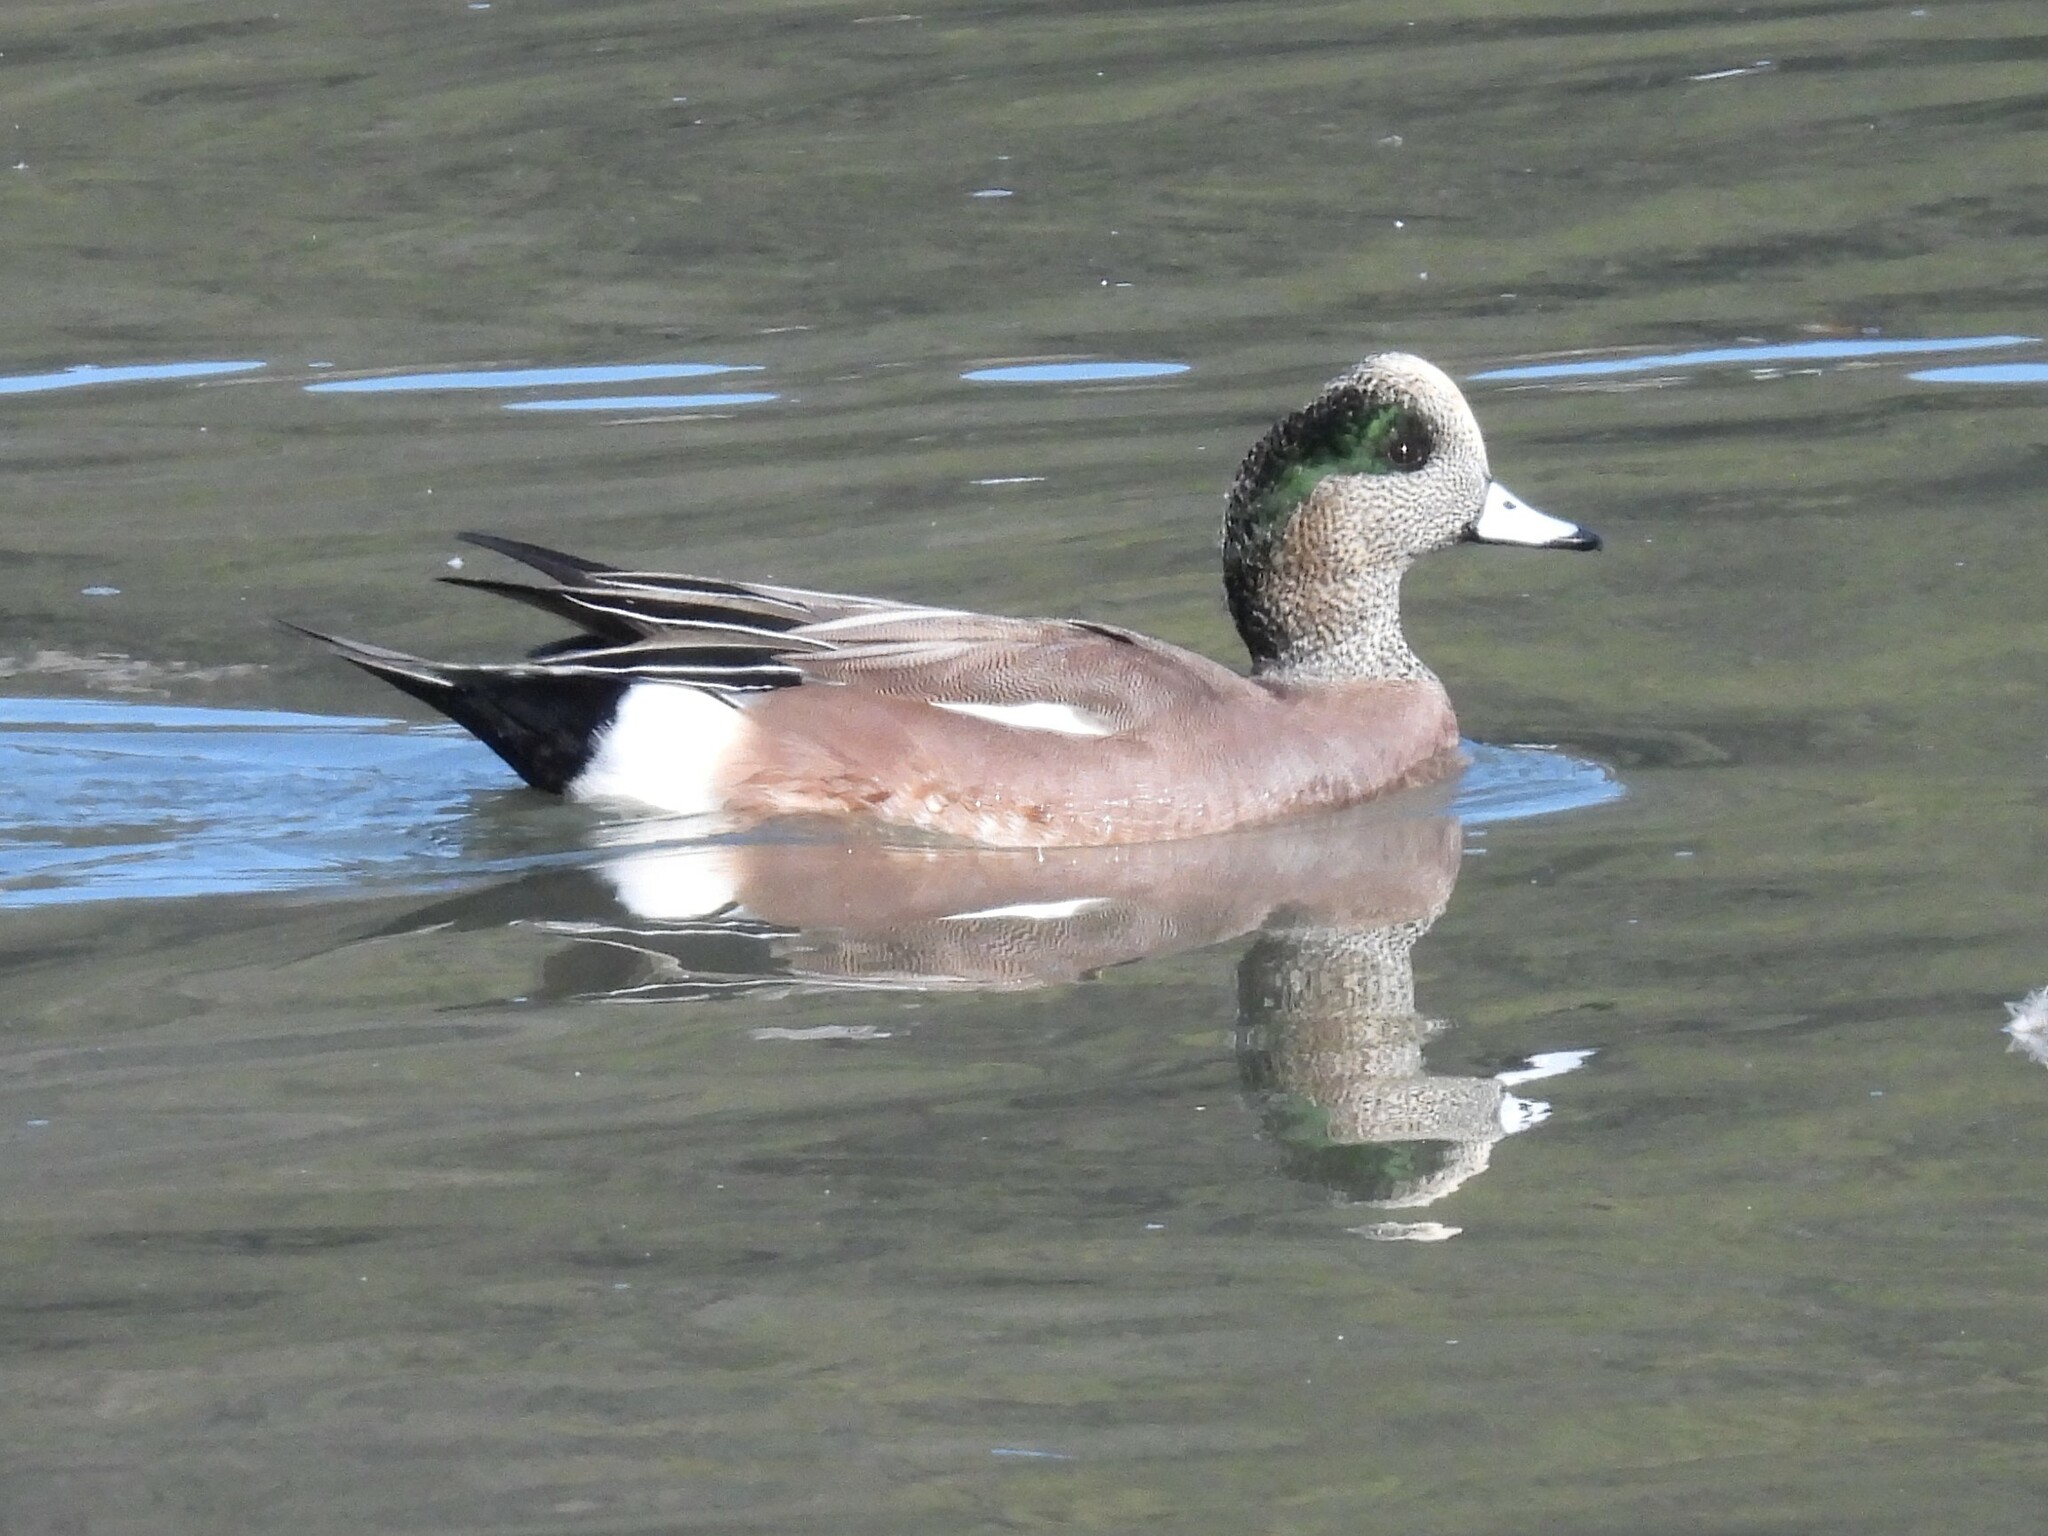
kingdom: Animalia
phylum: Chordata
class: Aves
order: Anseriformes
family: Anatidae
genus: Mareca
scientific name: Mareca americana
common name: American wigeon
